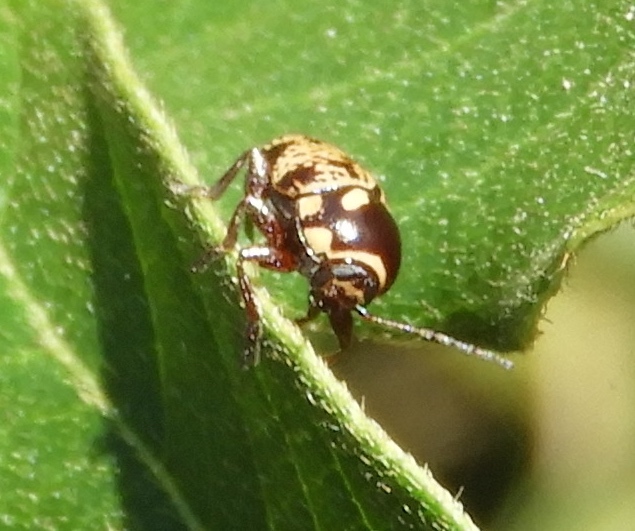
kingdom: Animalia
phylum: Arthropoda
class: Insecta
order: Coleoptera
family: Chrysomelidae
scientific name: Chrysomelidae
